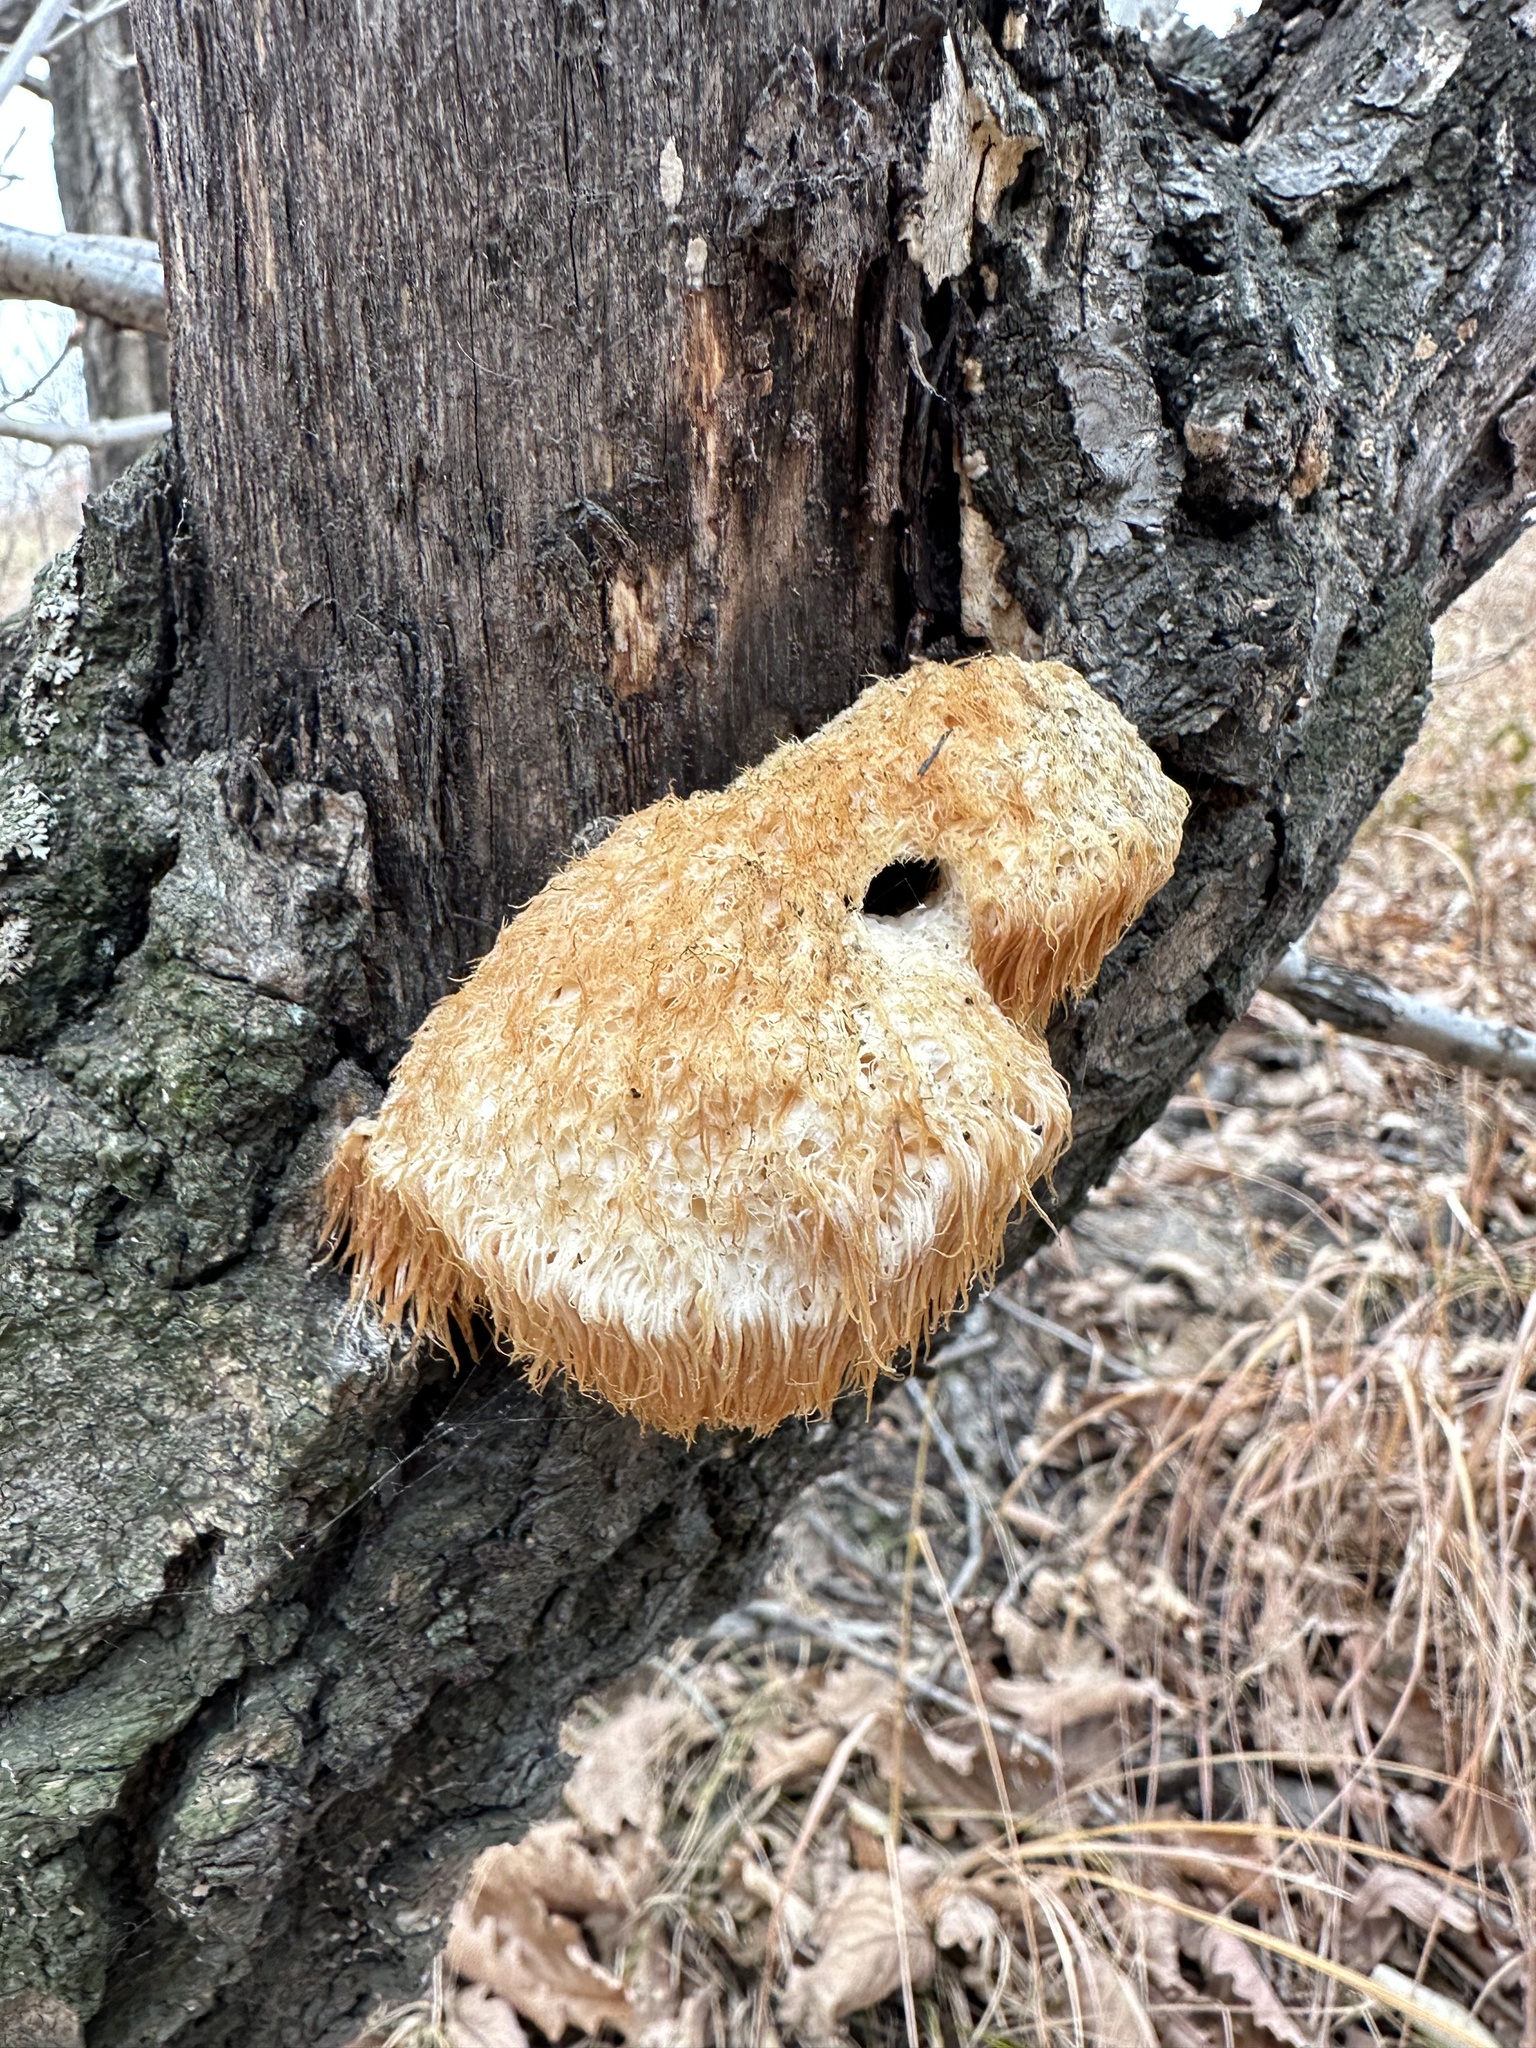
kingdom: Fungi
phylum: Basidiomycota
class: Agaricomycetes
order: Russulales
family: Hericiaceae
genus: Hericium
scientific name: Hericium erinaceus
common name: Bearded tooth
